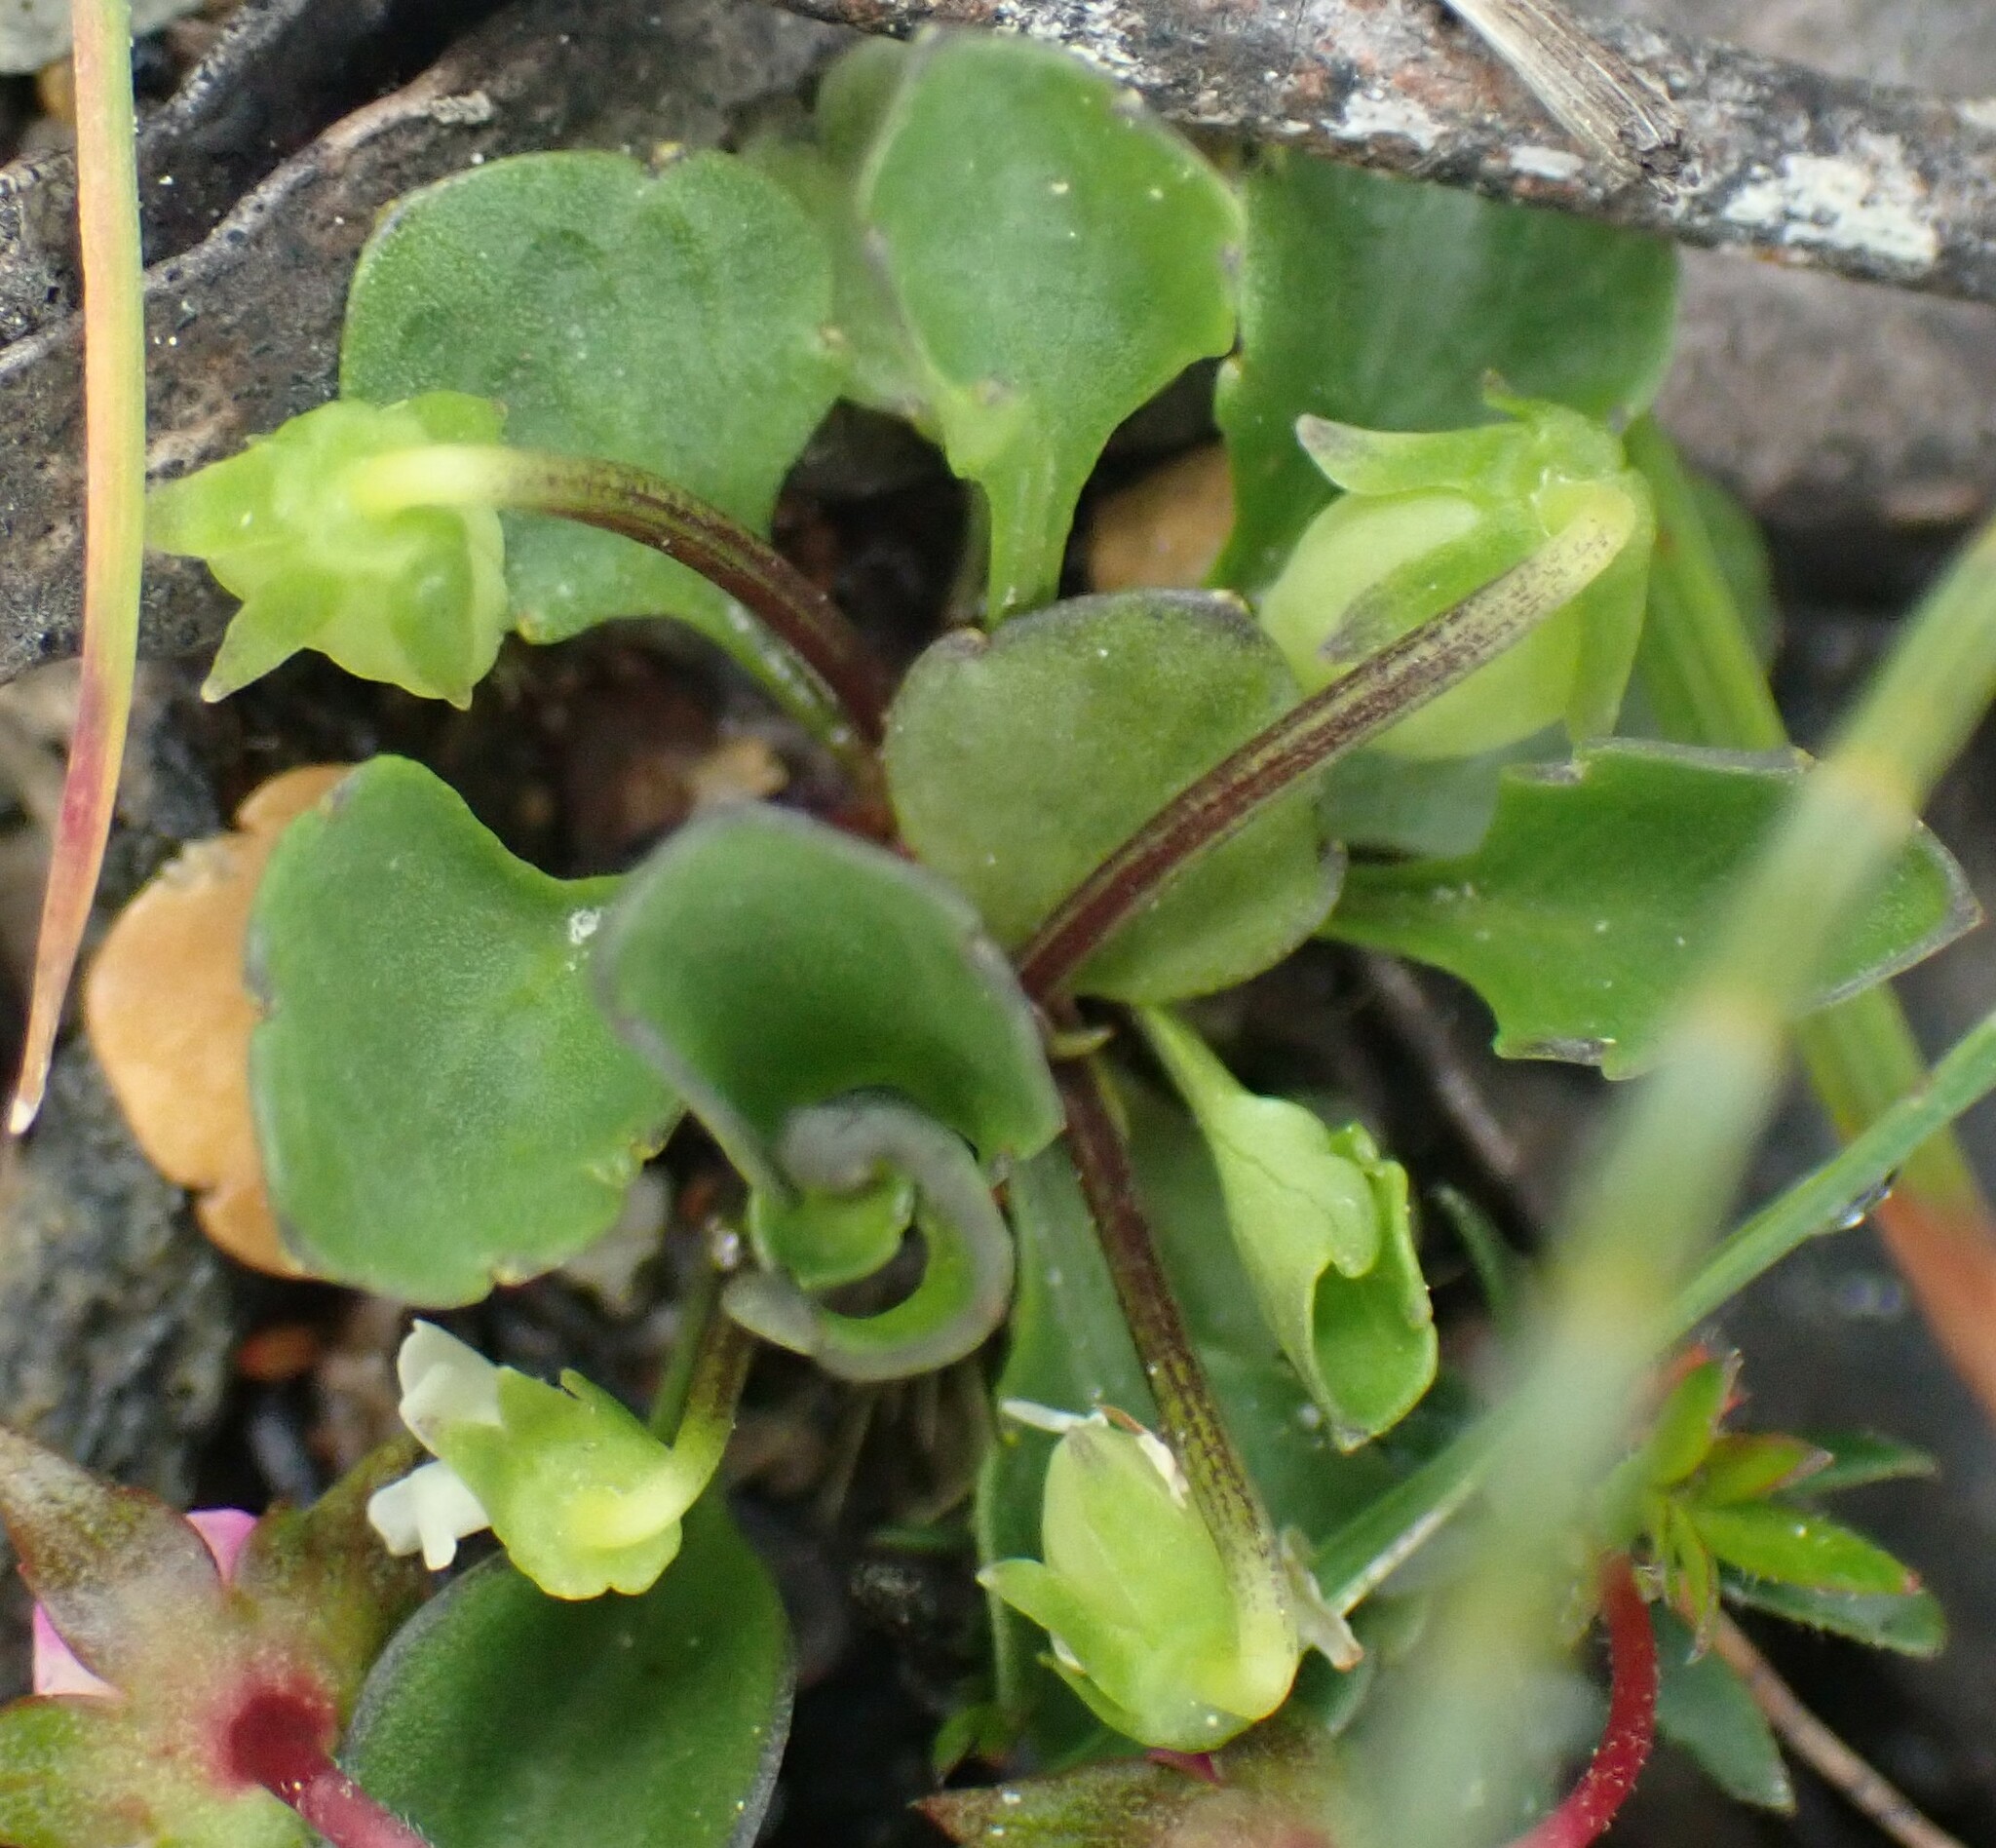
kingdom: Plantae
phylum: Tracheophyta
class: Magnoliopsida
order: Malpighiales
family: Violaceae
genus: Viola
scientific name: Viola cleistogamoides
